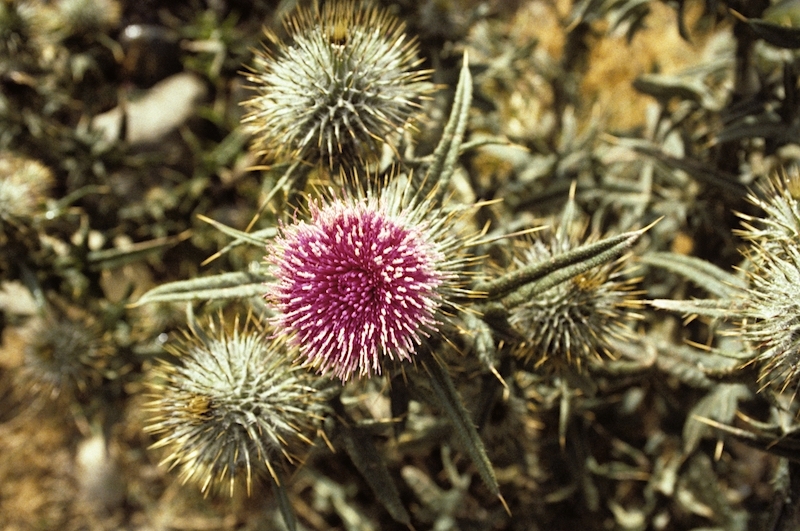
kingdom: Plantae
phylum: Tracheophyta
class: Magnoliopsida
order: Asterales
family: Asteraceae
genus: Cirsium
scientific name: Cirsium vulgare
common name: Bull thistle
